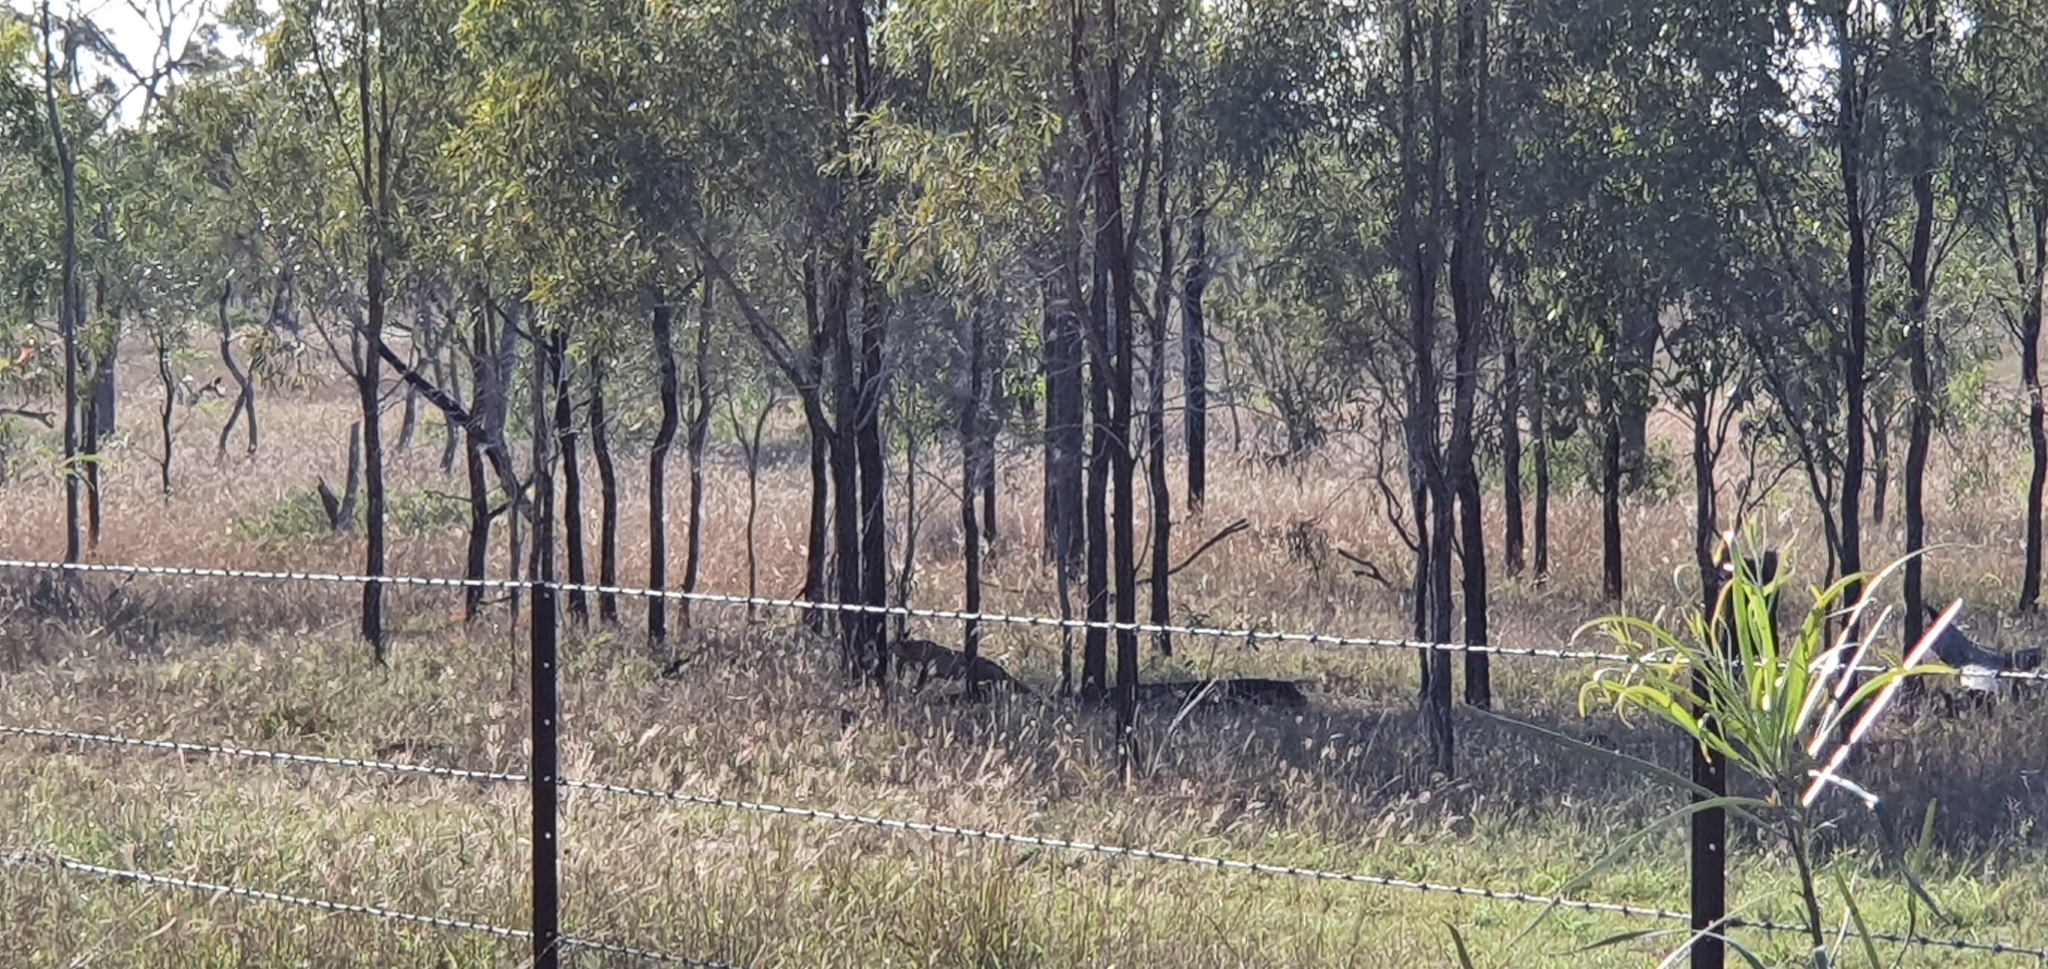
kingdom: Animalia
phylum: Chordata
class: Mammalia
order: Carnivora
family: Canidae
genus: Vulpes
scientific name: Vulpes vulpes
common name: Red fox
